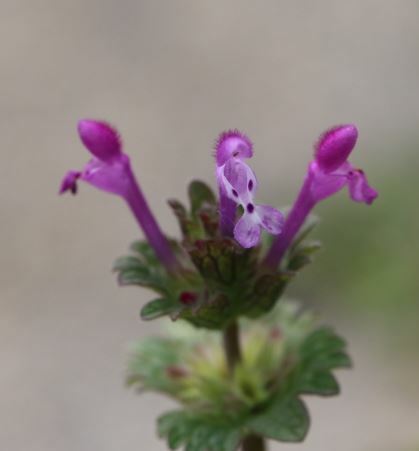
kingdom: Plantae
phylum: Tracheophyta
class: Magnoliopsida
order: Lamiales
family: Lamiaceae
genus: Lamium
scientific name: Lamium amplexicaule
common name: Henbit dead-nettle
